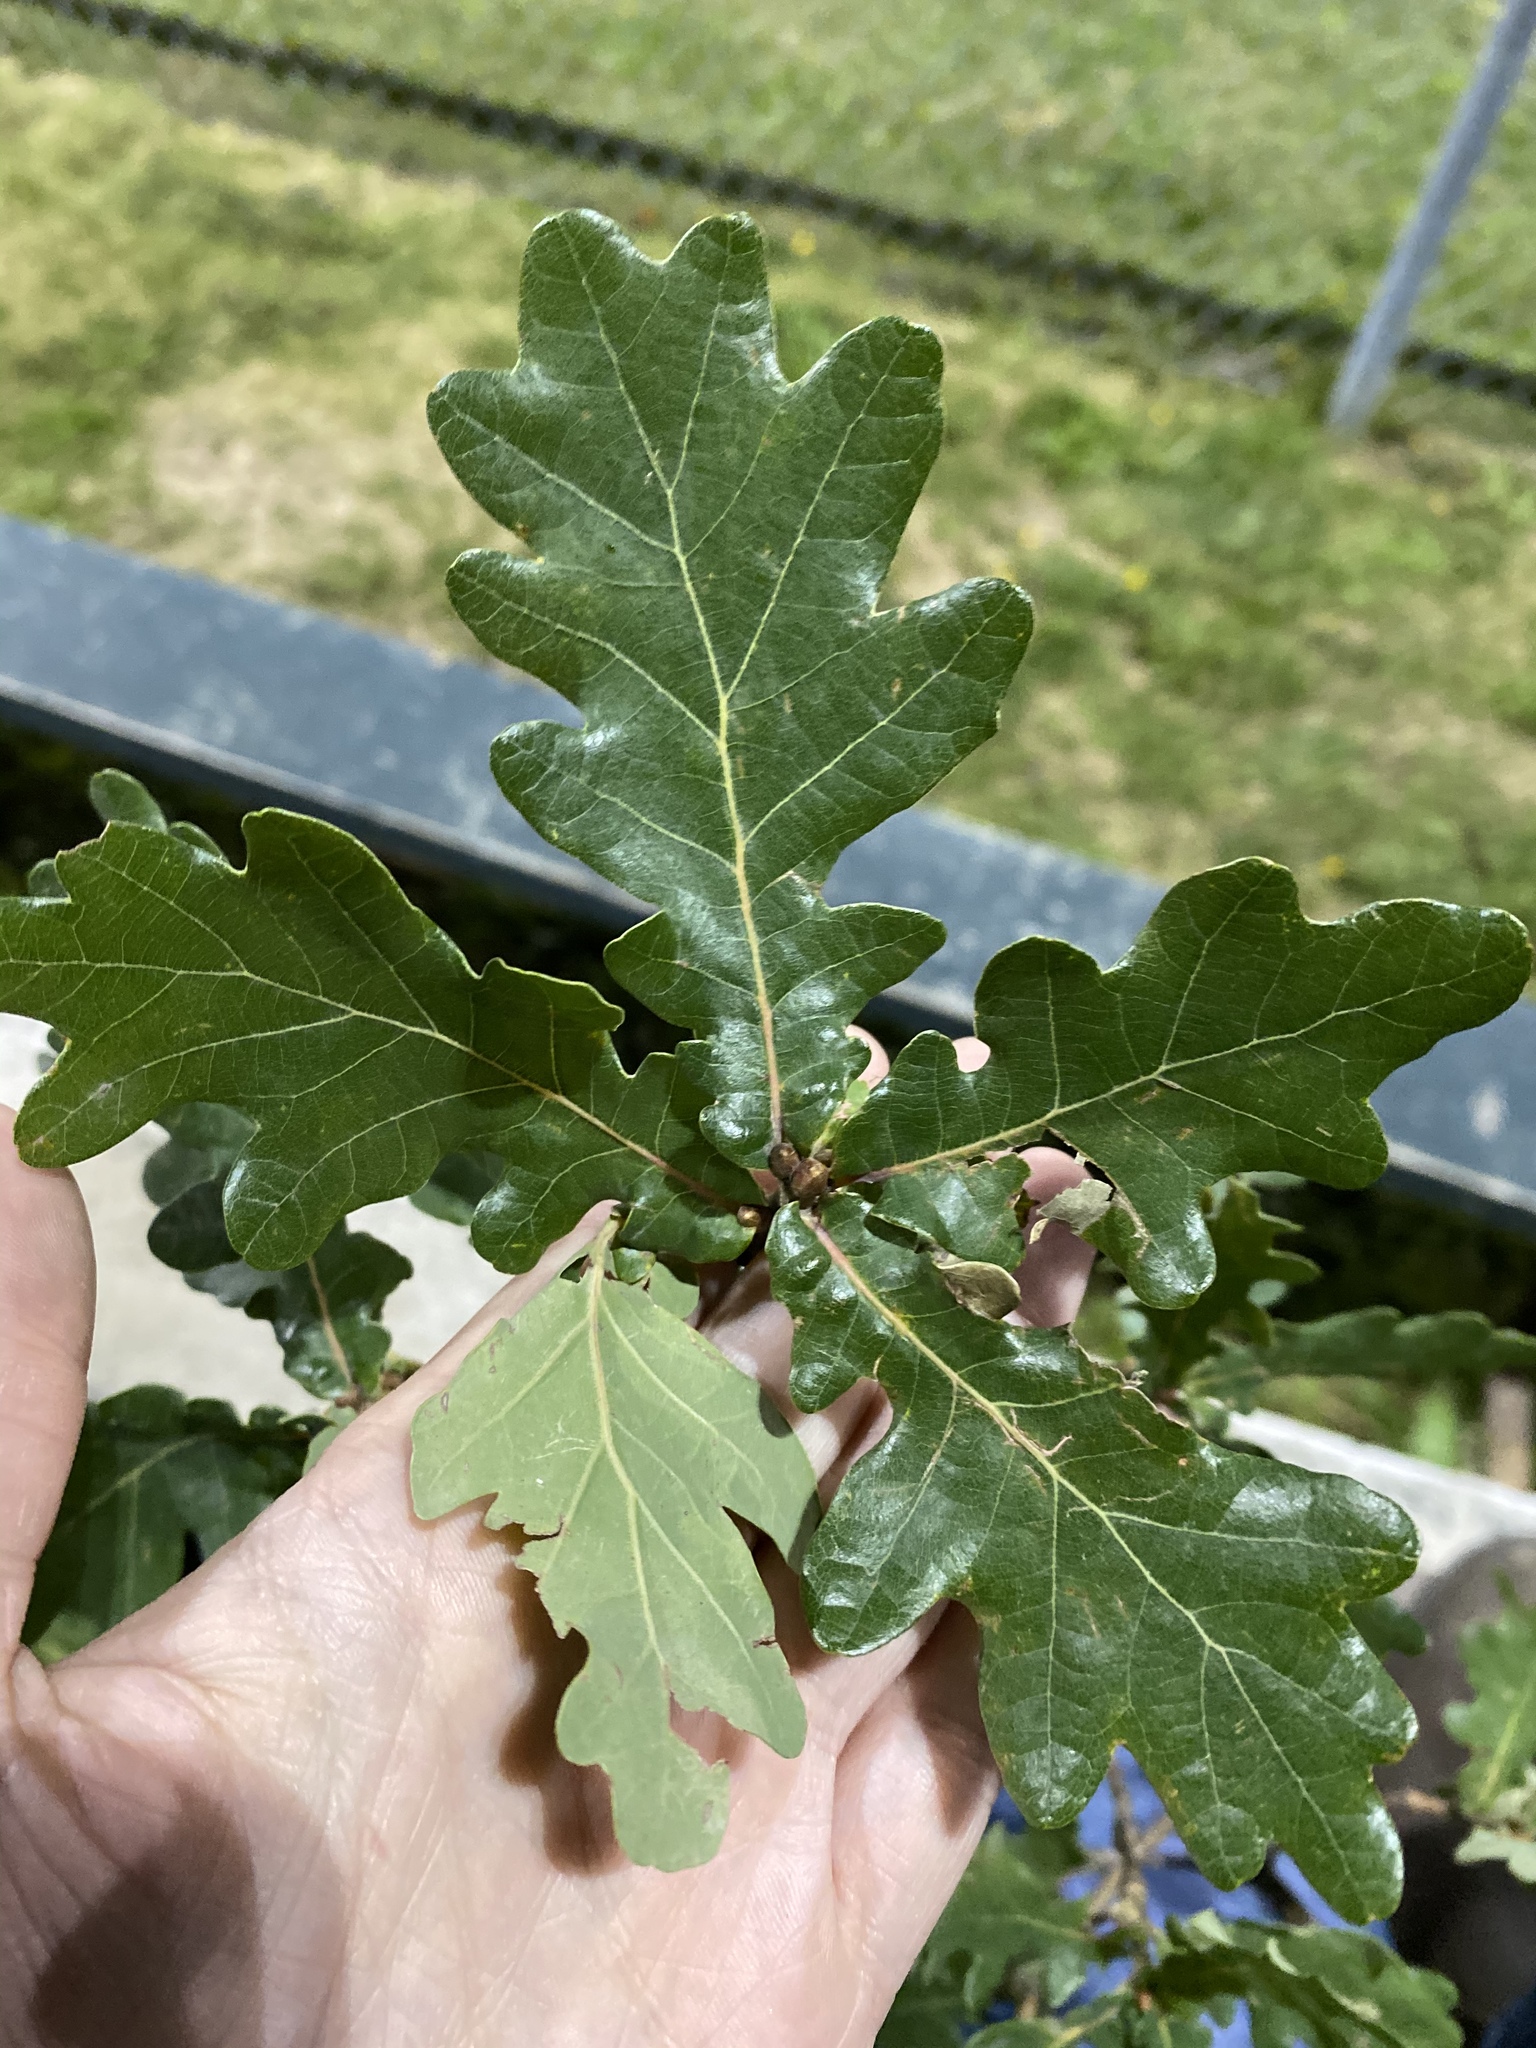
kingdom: Plantae
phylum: Tracheophyta
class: Magnoliopsida
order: Fagales
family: Fagaceae
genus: Quercus
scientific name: Quercus robur
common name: Pedunculate oak
